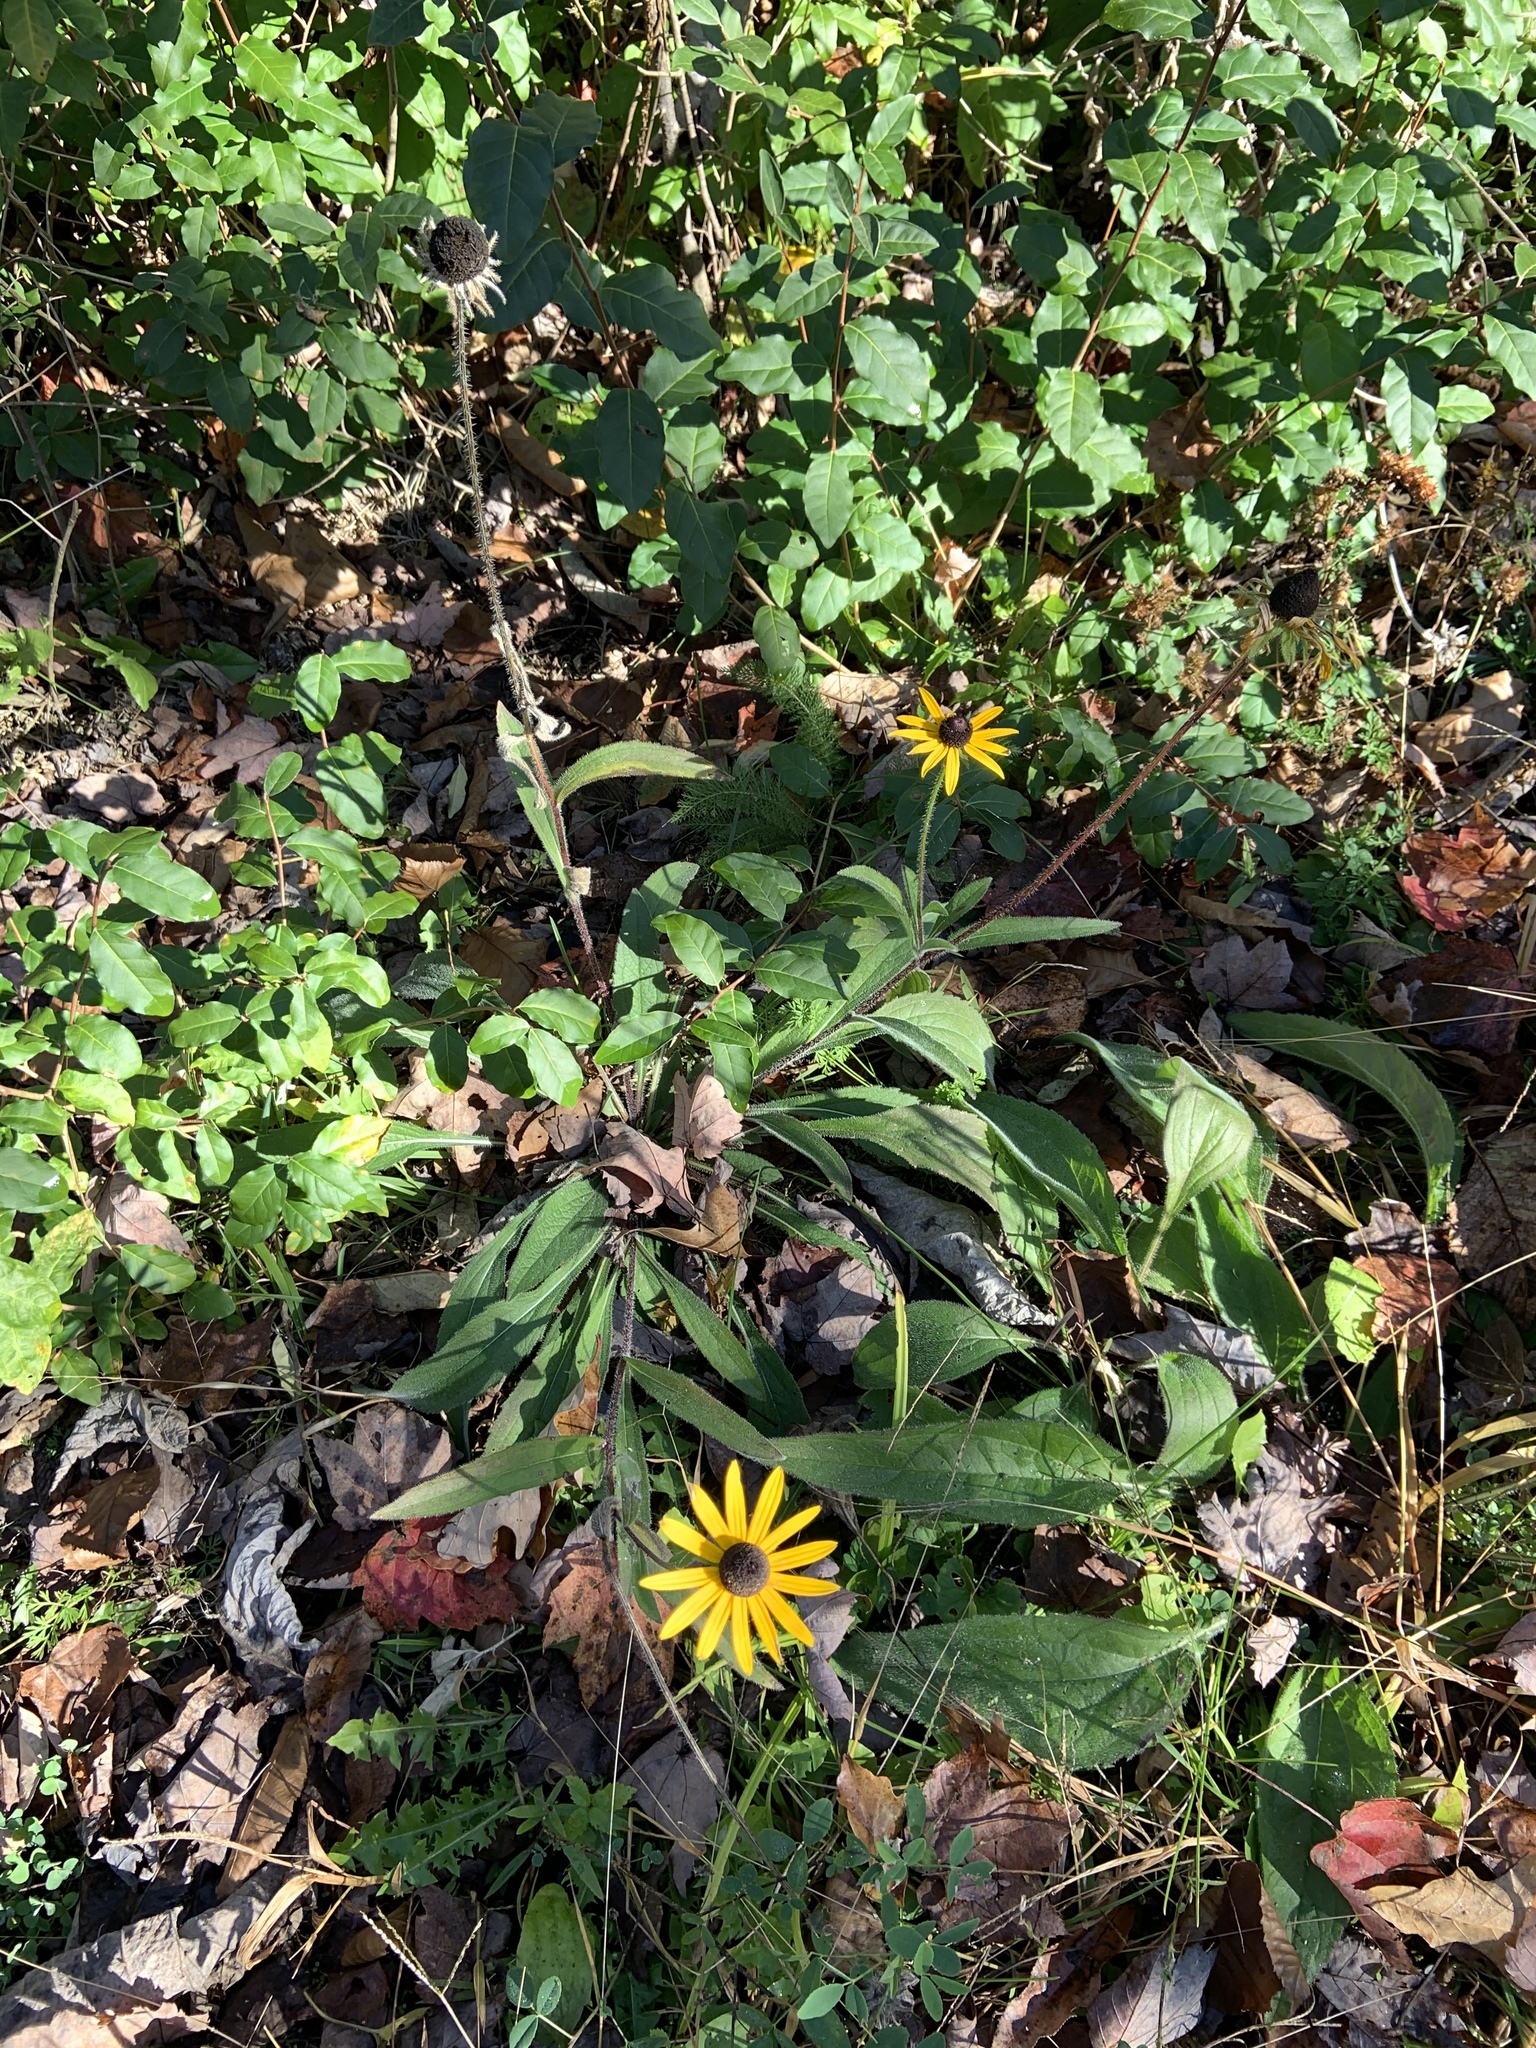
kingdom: Plantae
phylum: Tracheophyta
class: Magnoliopsida
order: Asterales
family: Asteraceae
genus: Rudbeckia
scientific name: Rudbeckia hirta
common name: Black-eyed-susan
